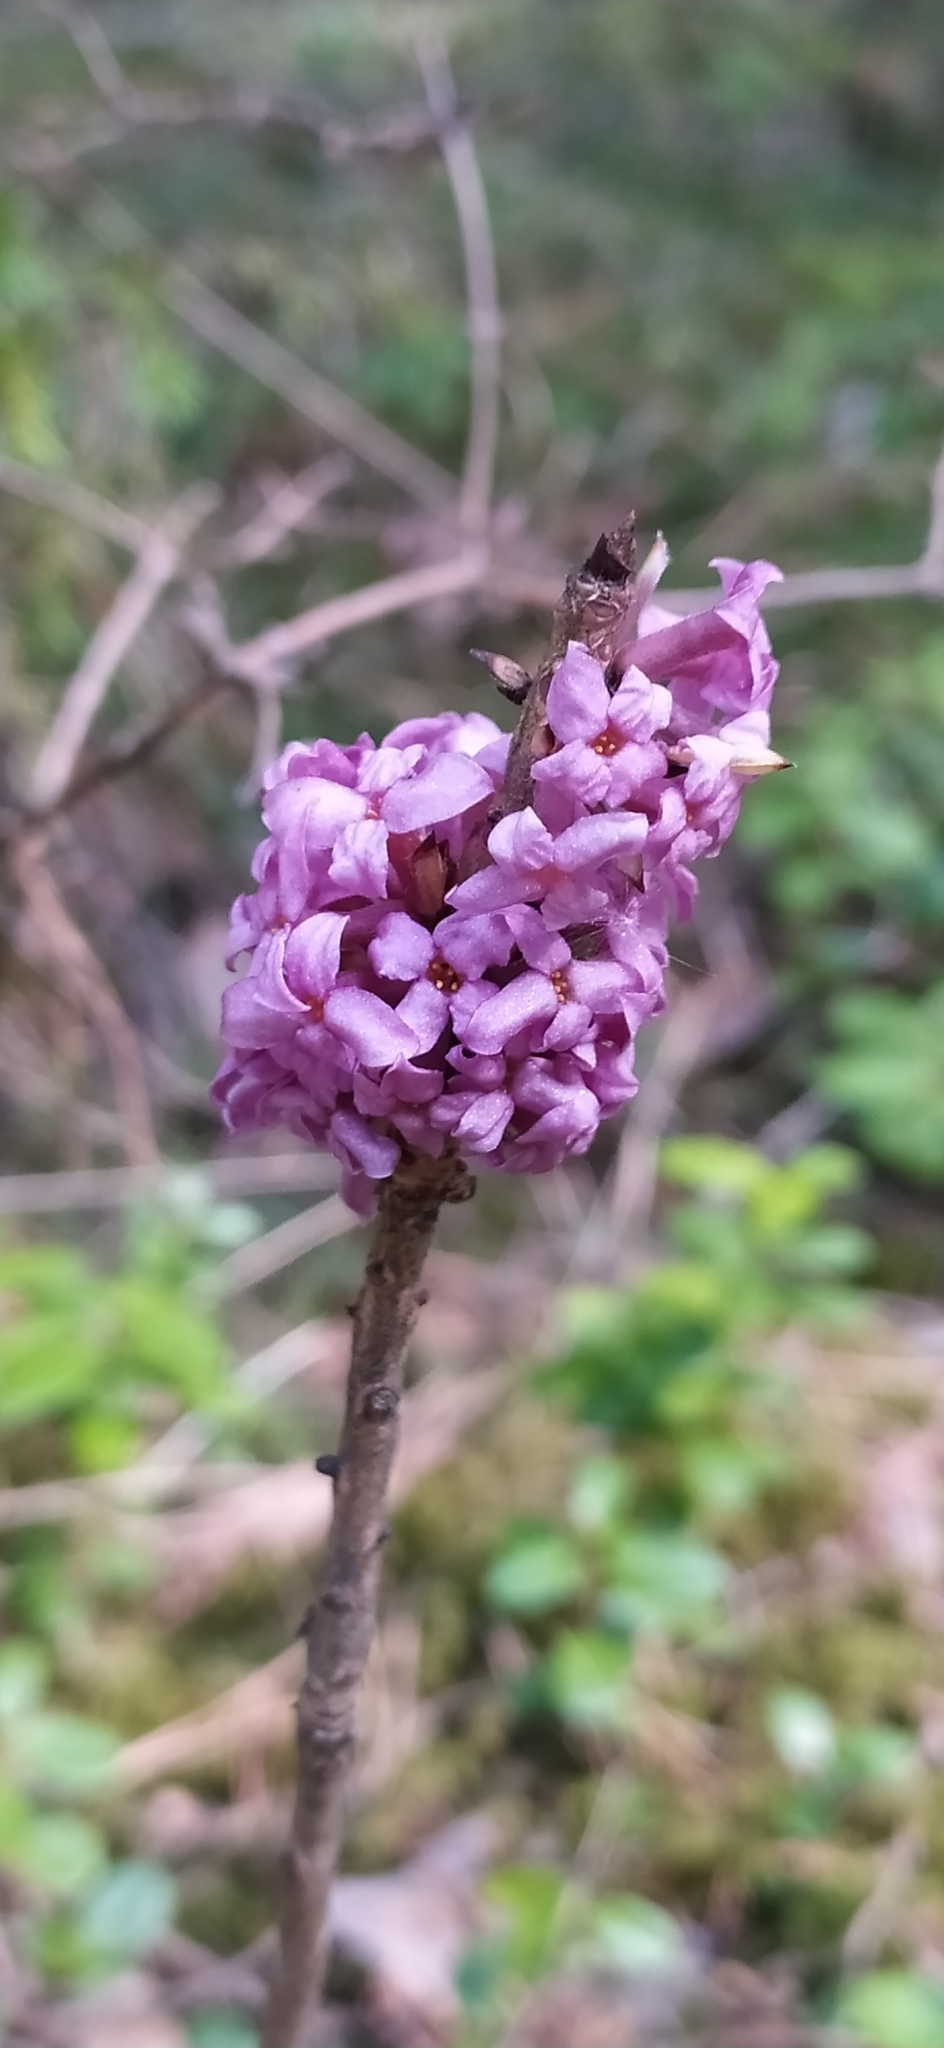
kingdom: Plantae
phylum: Tracheophyta
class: Magnoliopsida
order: Malvales
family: Thymelaeaceae
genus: Daphne
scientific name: Daphne mezereum
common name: Mezereon
